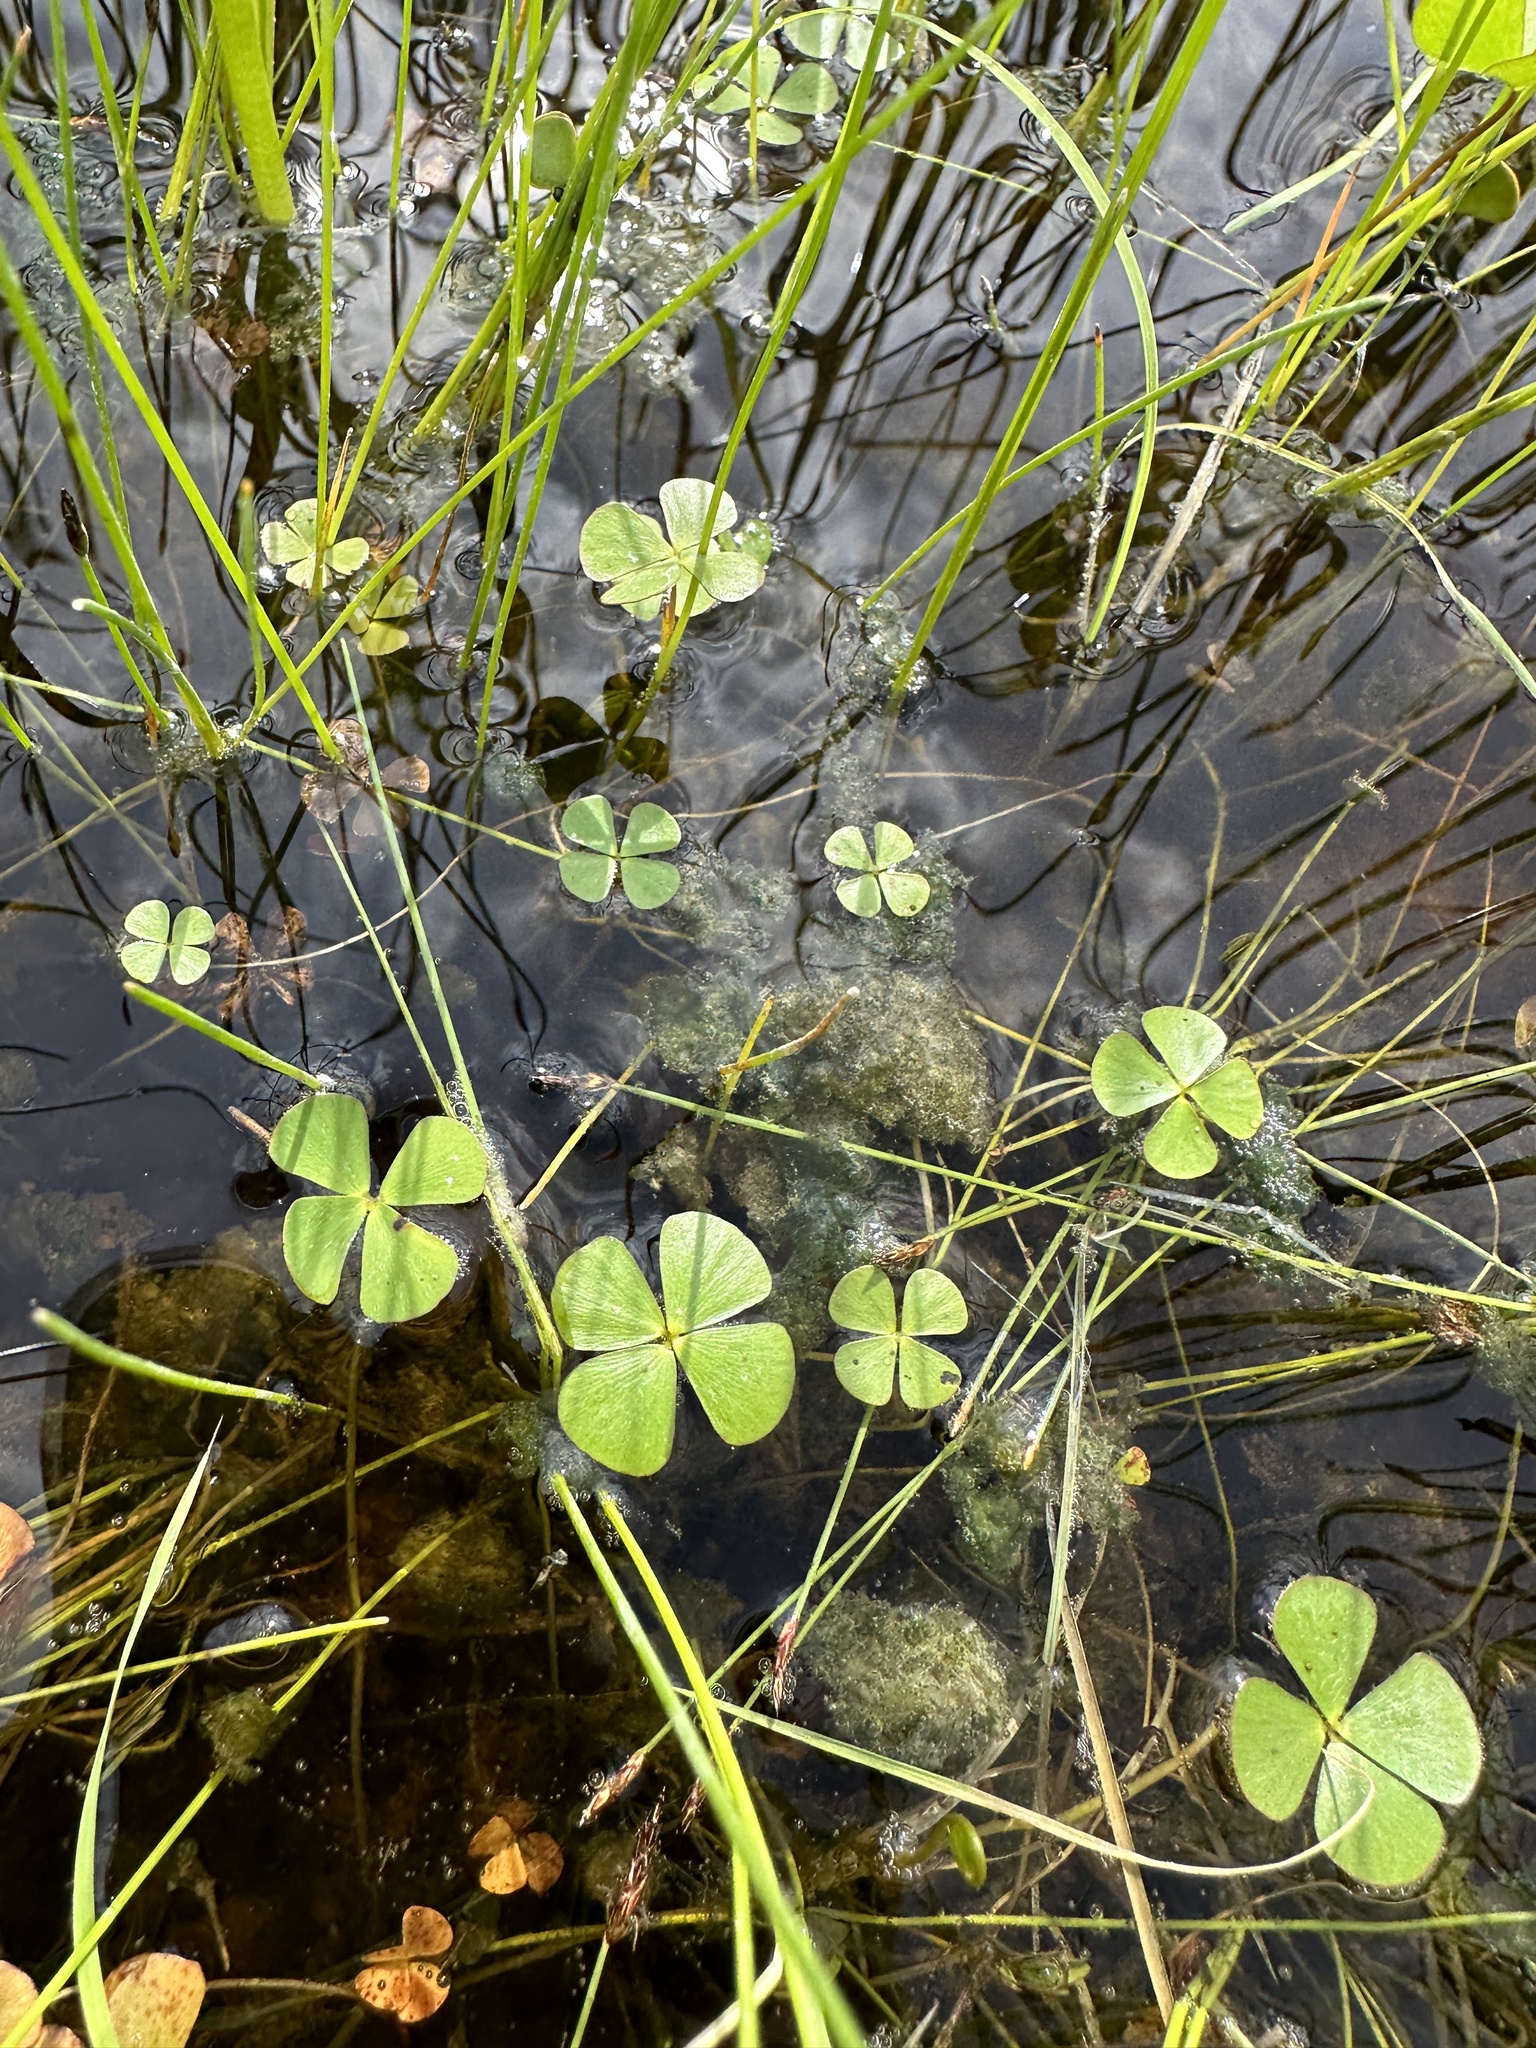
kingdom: Plantae
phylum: Tracheophyta
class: Polypodiopsida
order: Salviniales
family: Marsileaceae
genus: Marsilea
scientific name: Marsilea vestita
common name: Hooked-pepperwort
